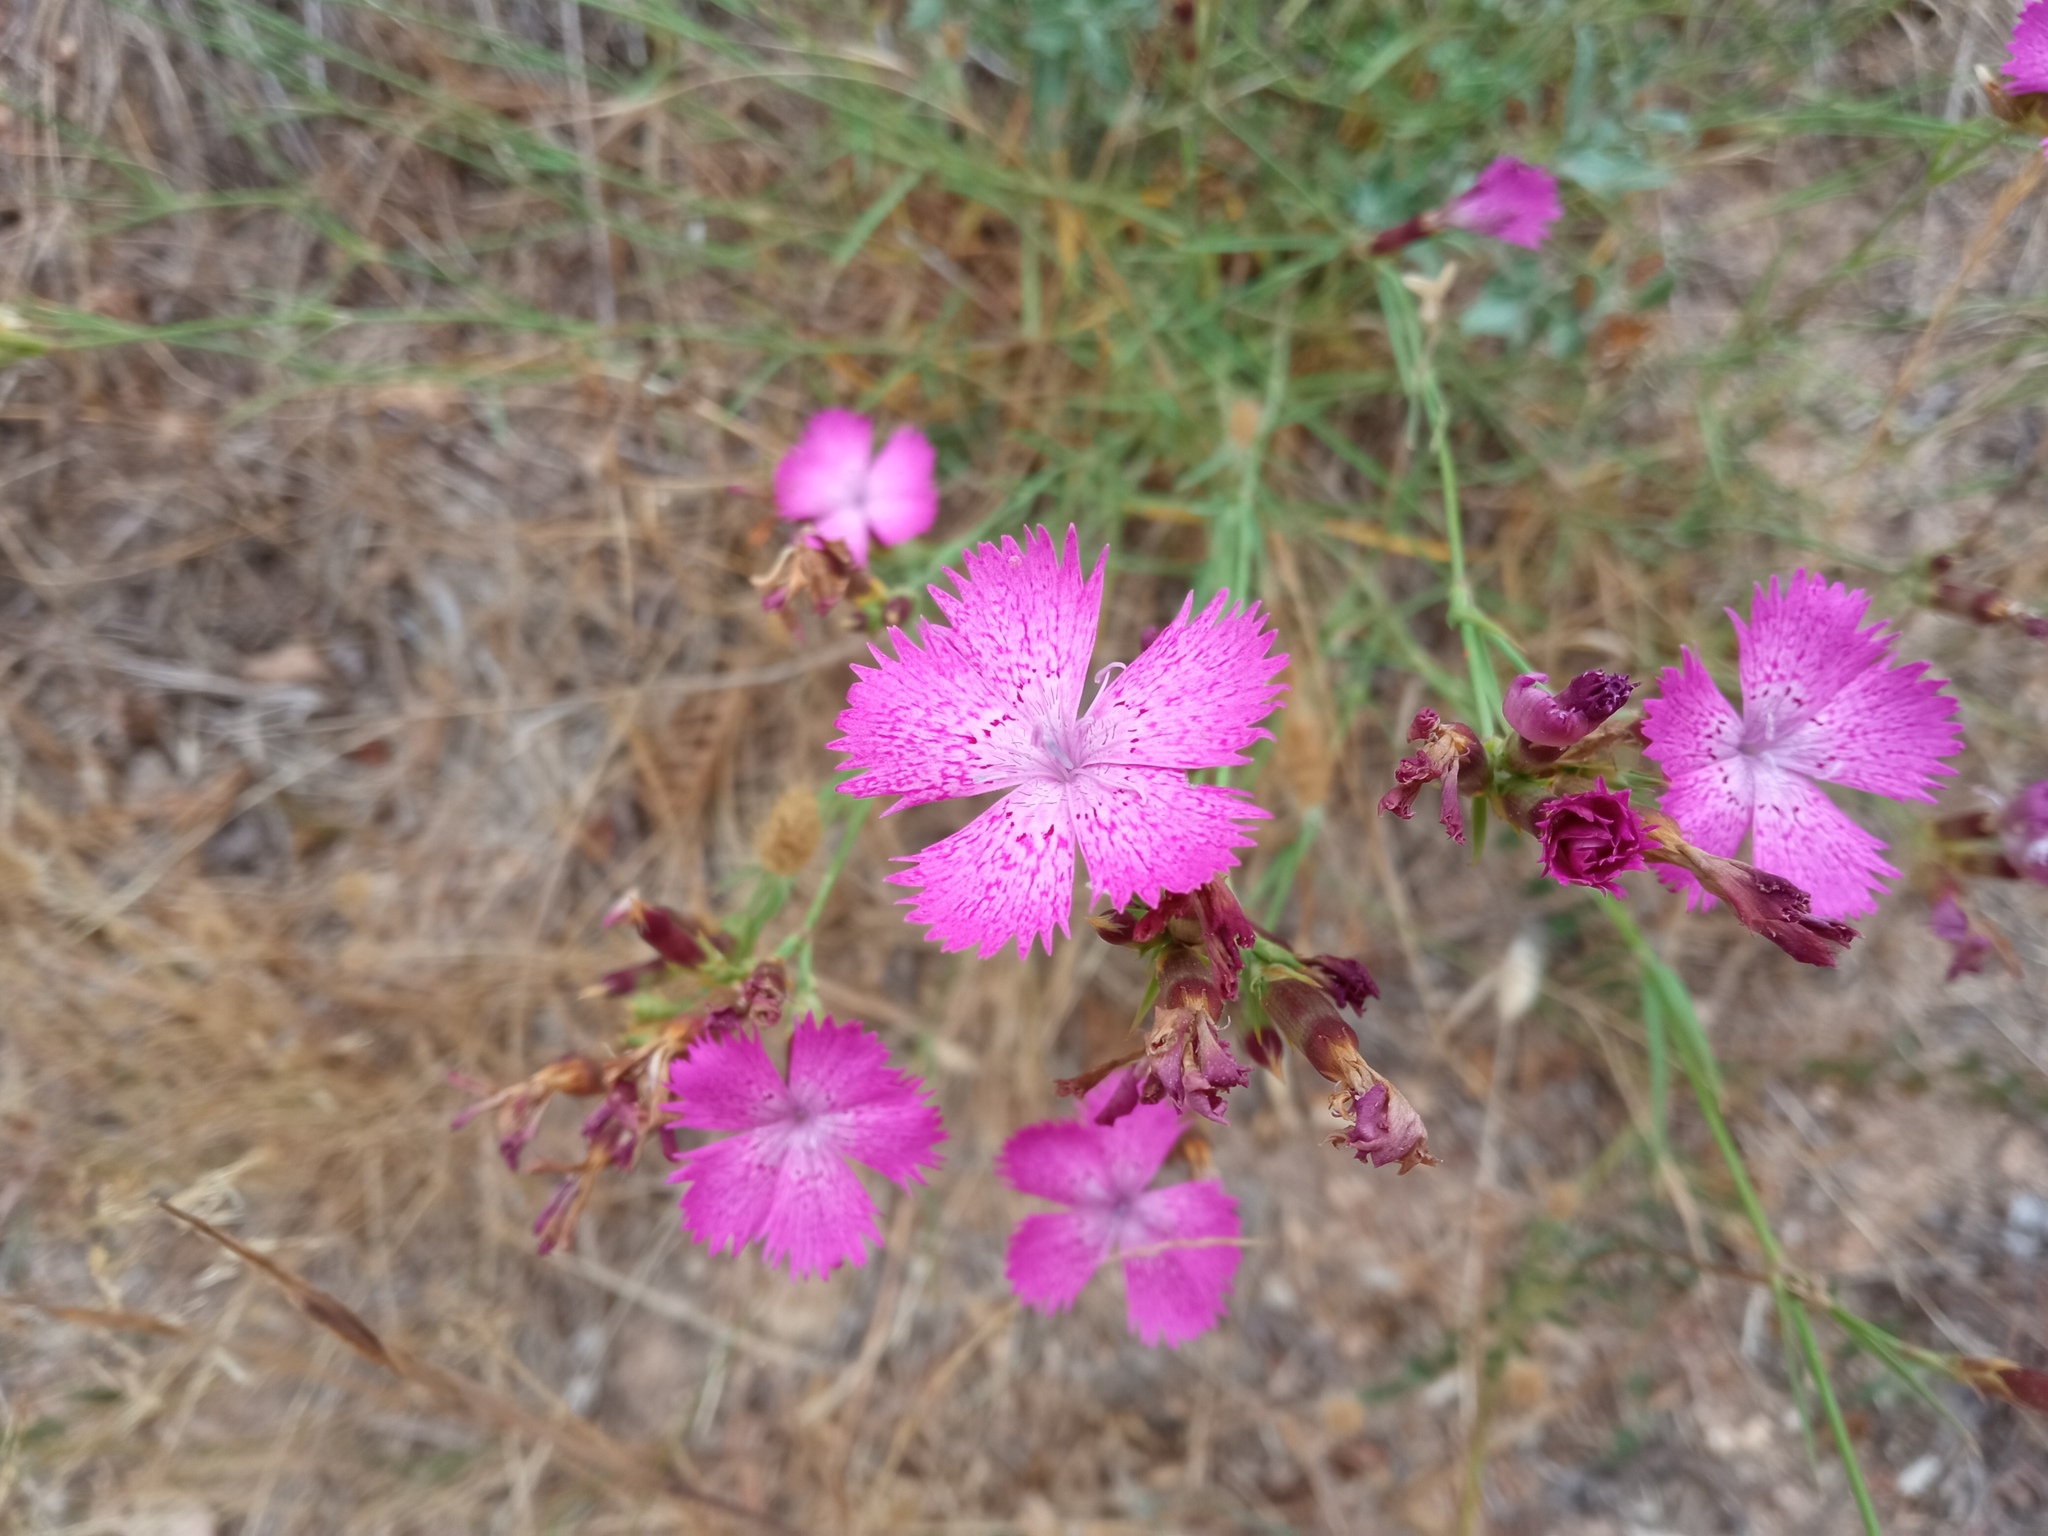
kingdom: Plantae
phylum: Tracheophyta
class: Magnoliopsida
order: Caryophyllales
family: Caryophyllaceae
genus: Dianthus
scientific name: Dianthus seguieri
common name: Ragged pink
